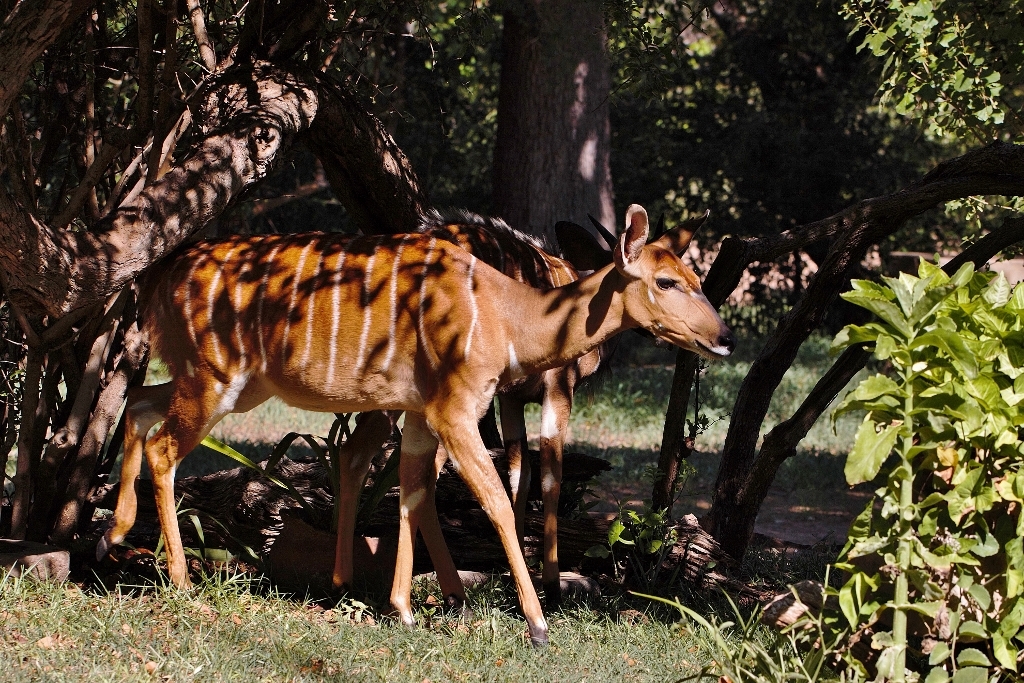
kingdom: Animalia
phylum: Chordata
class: Mammalia
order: Artiodactyla
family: Bovidae
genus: Tragelaphus
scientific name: Tragelaphus angasii
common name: Nyala
